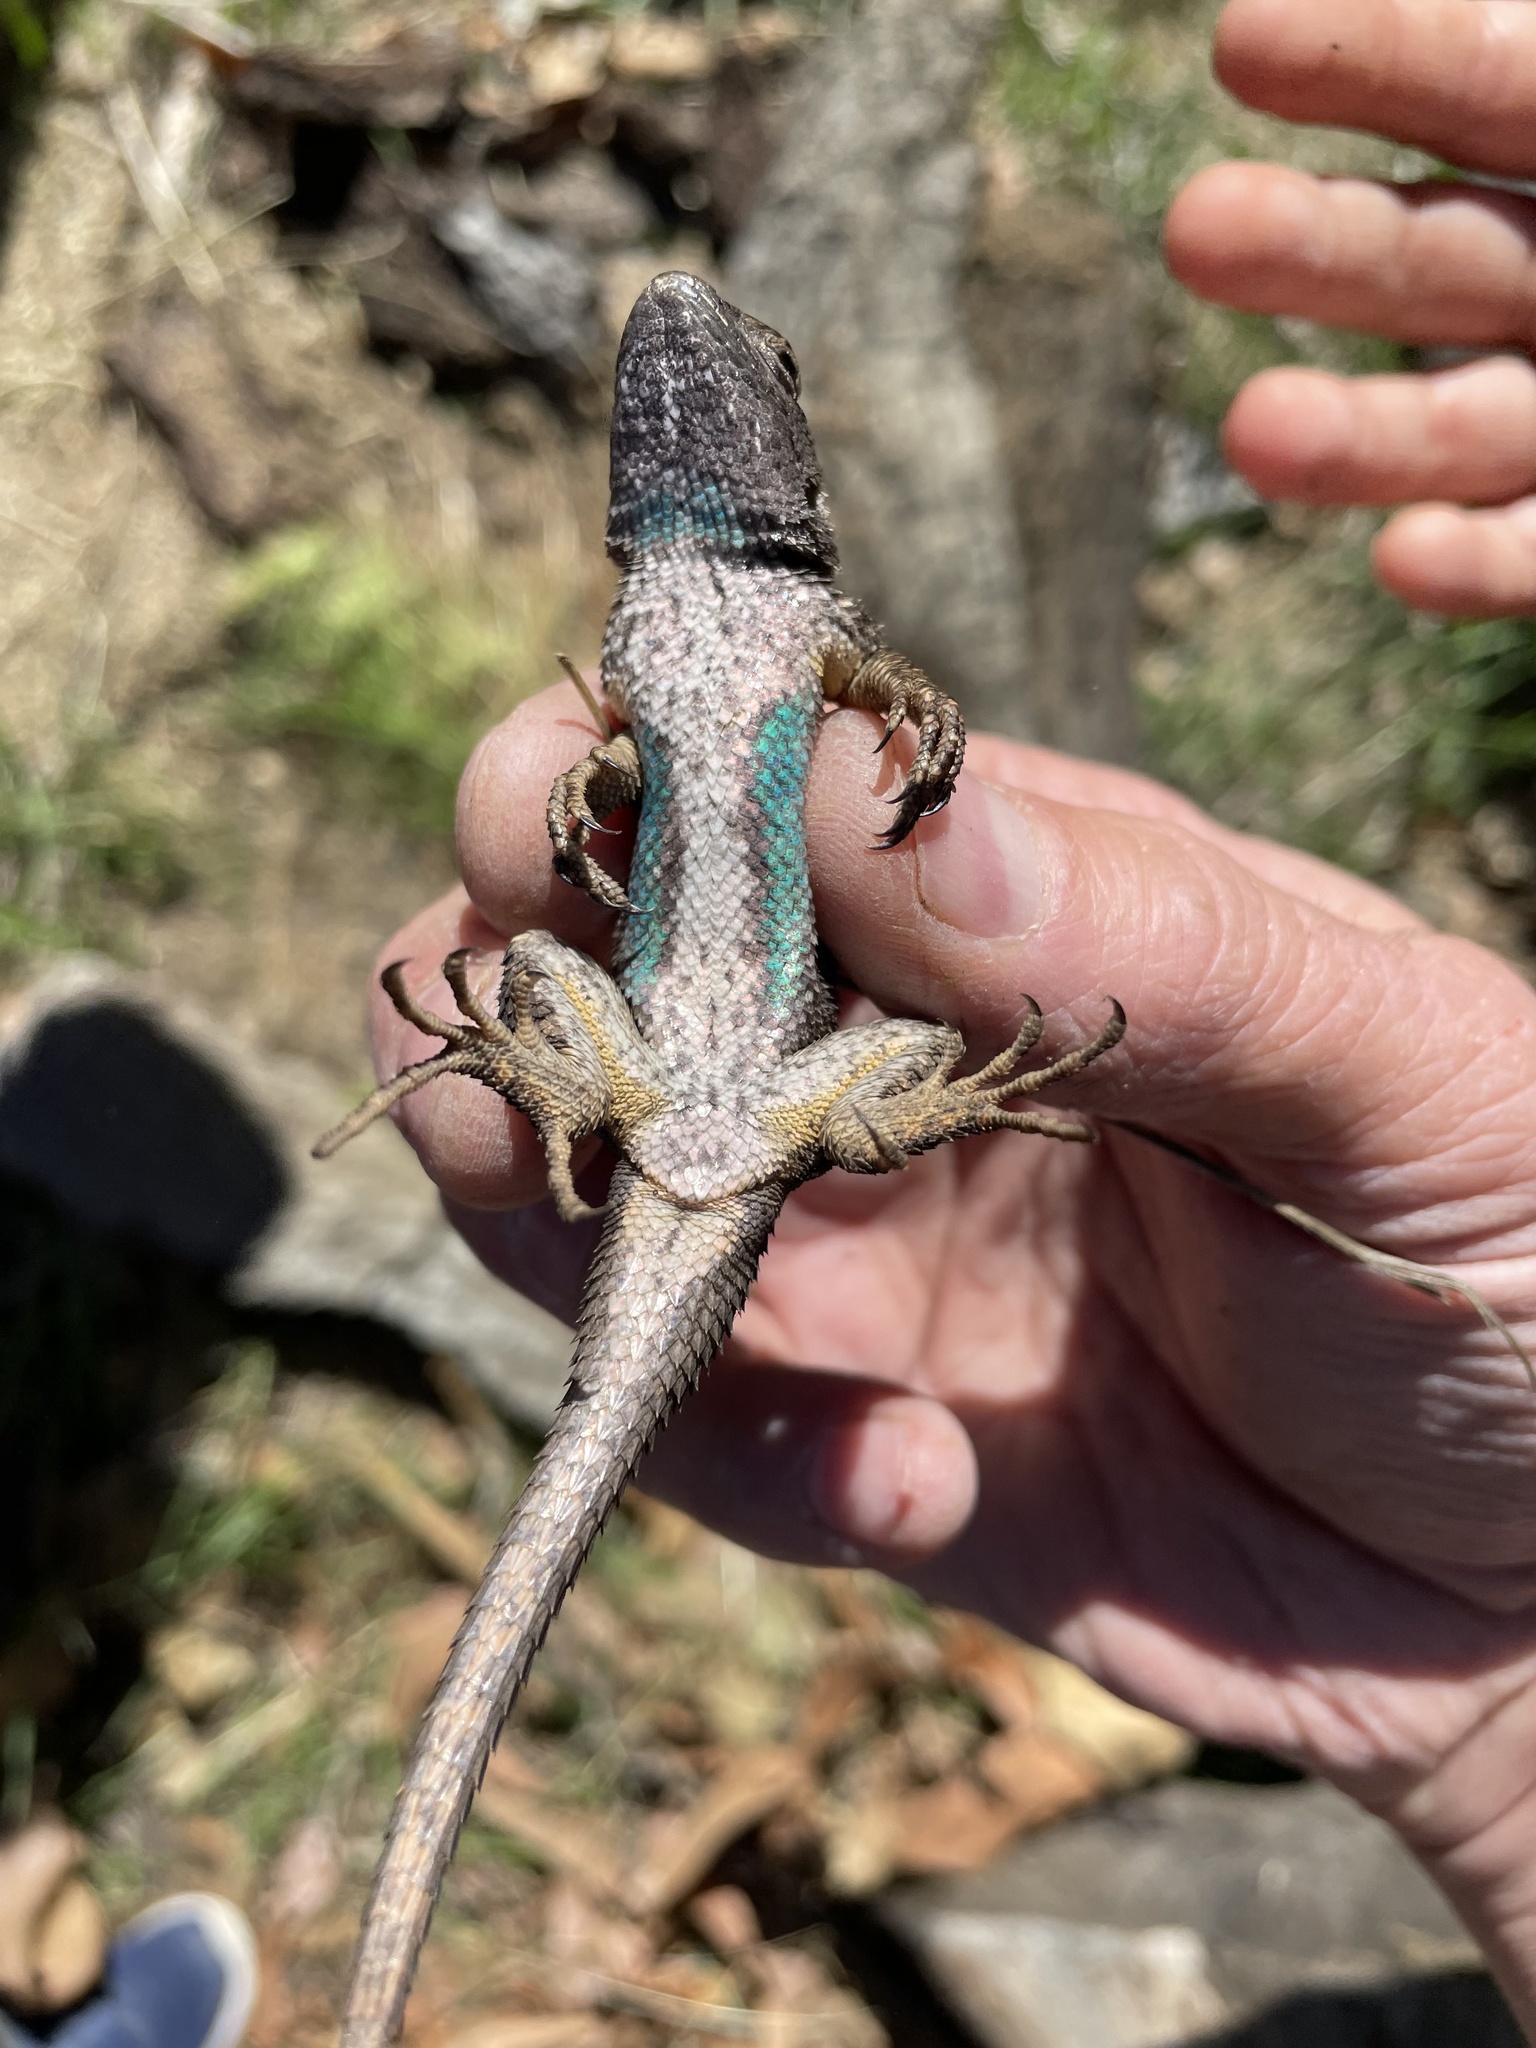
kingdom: Animalia
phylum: Chordata
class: Squamata
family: Phrynosomatidae
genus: Sceloporus
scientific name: Sceloporus occidentalis
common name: Western fence lizard
